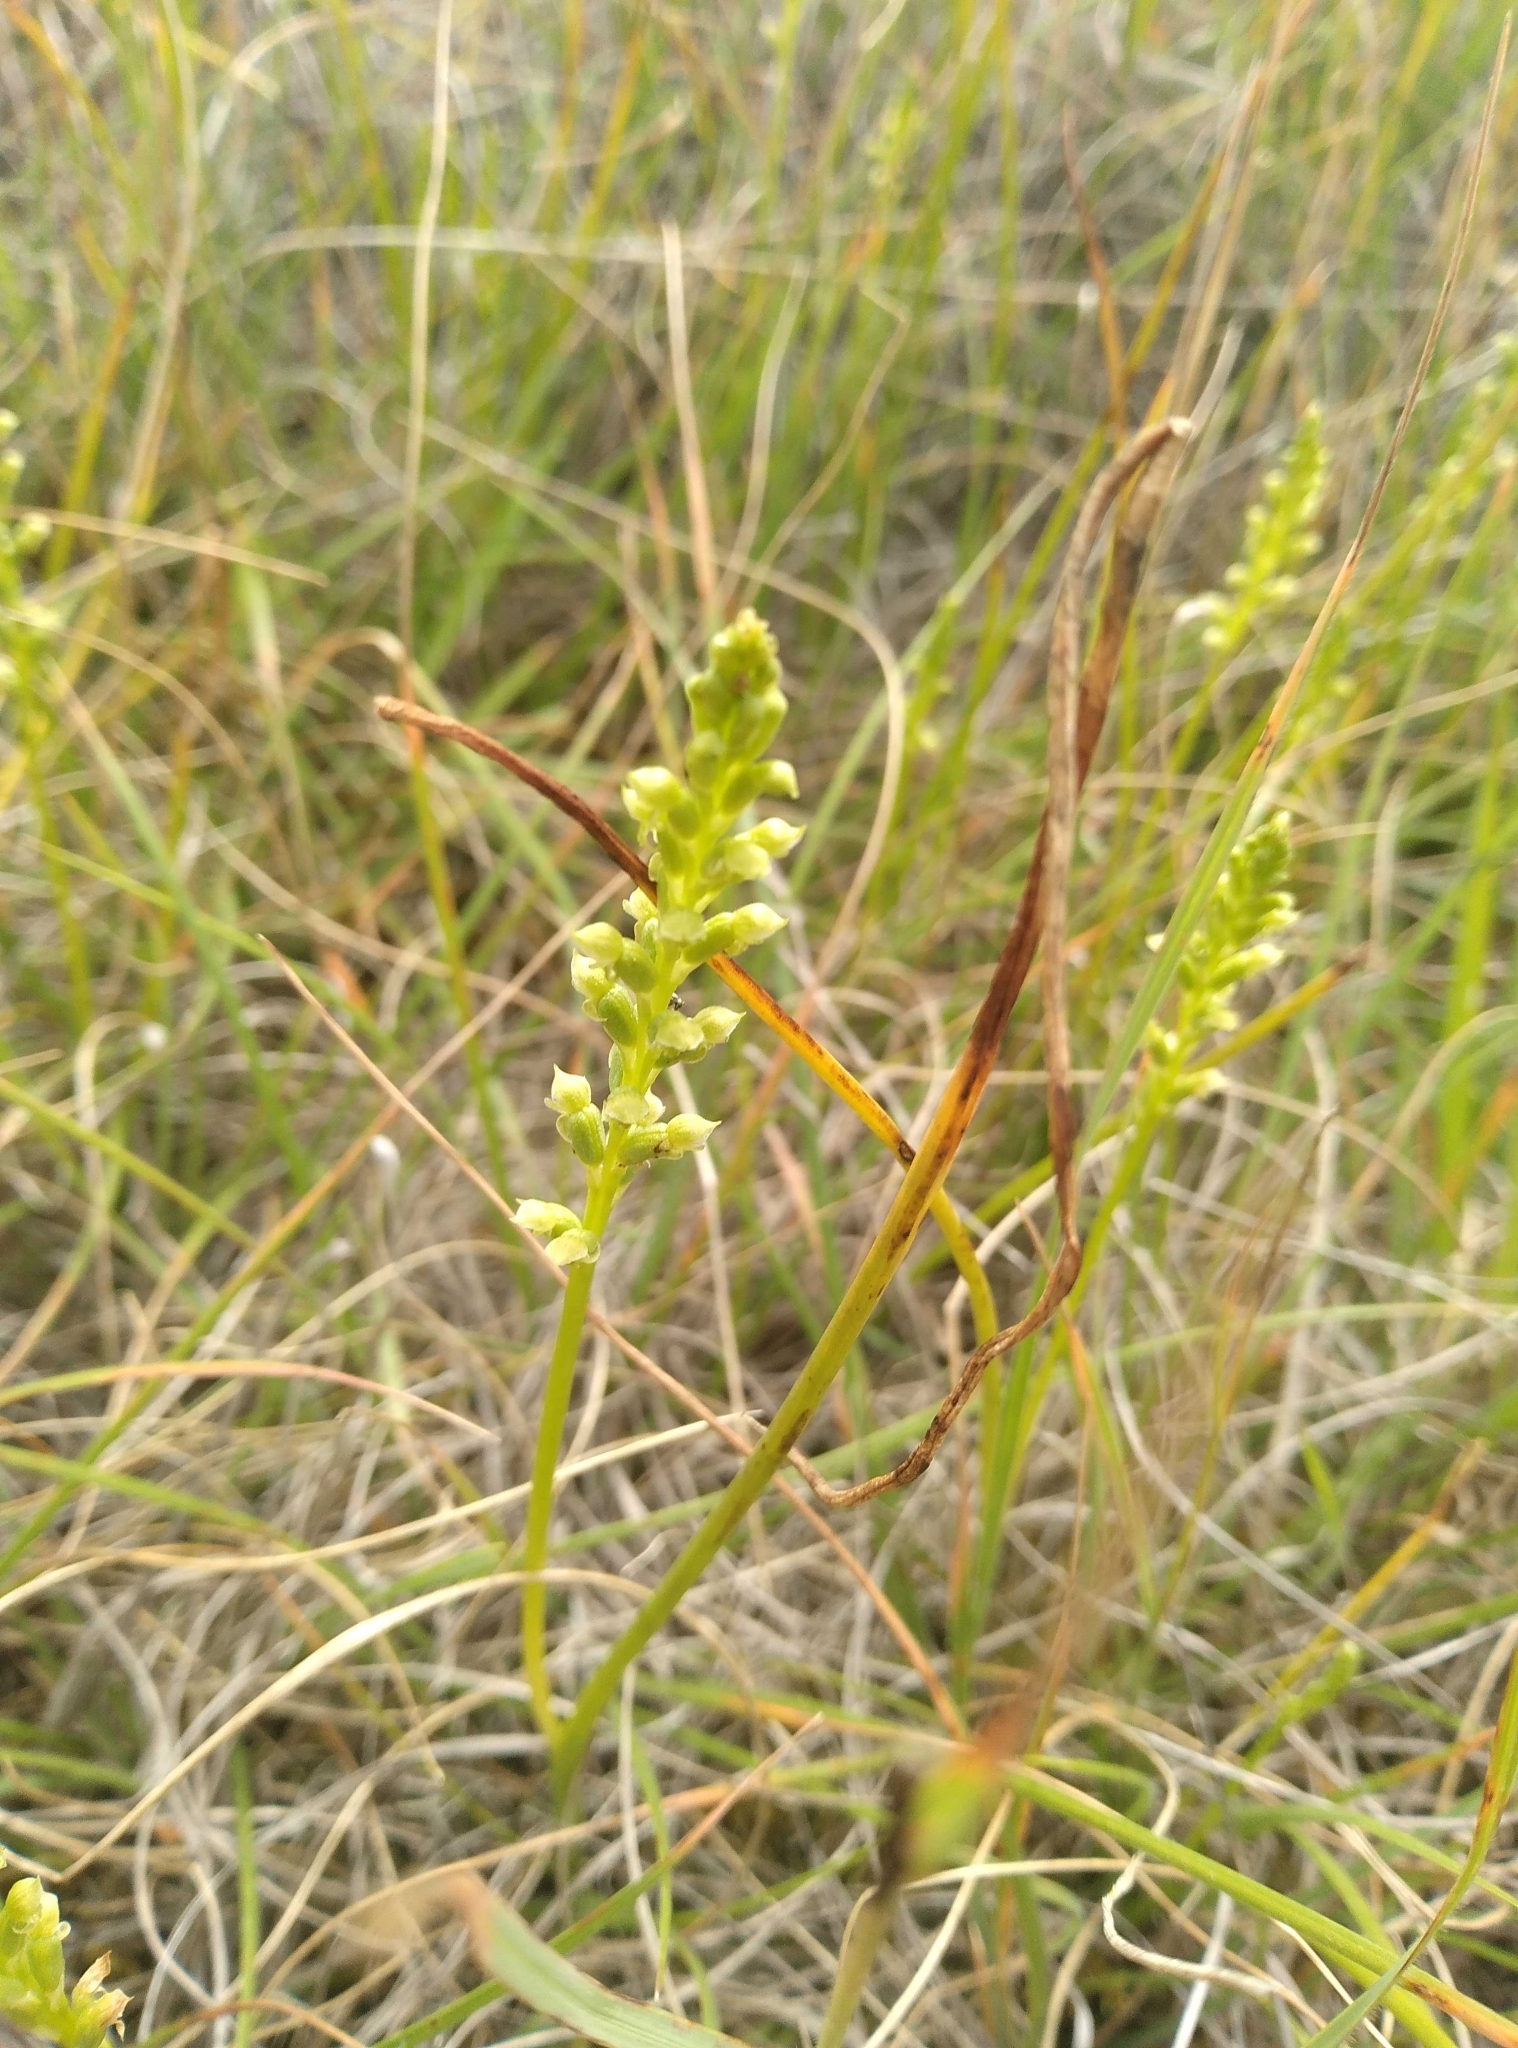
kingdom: Plantae
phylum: Tracheophyta
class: Liliopsida
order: Asparagales
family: Orchidaceae
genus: Microtis
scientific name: Microtis unifolia
